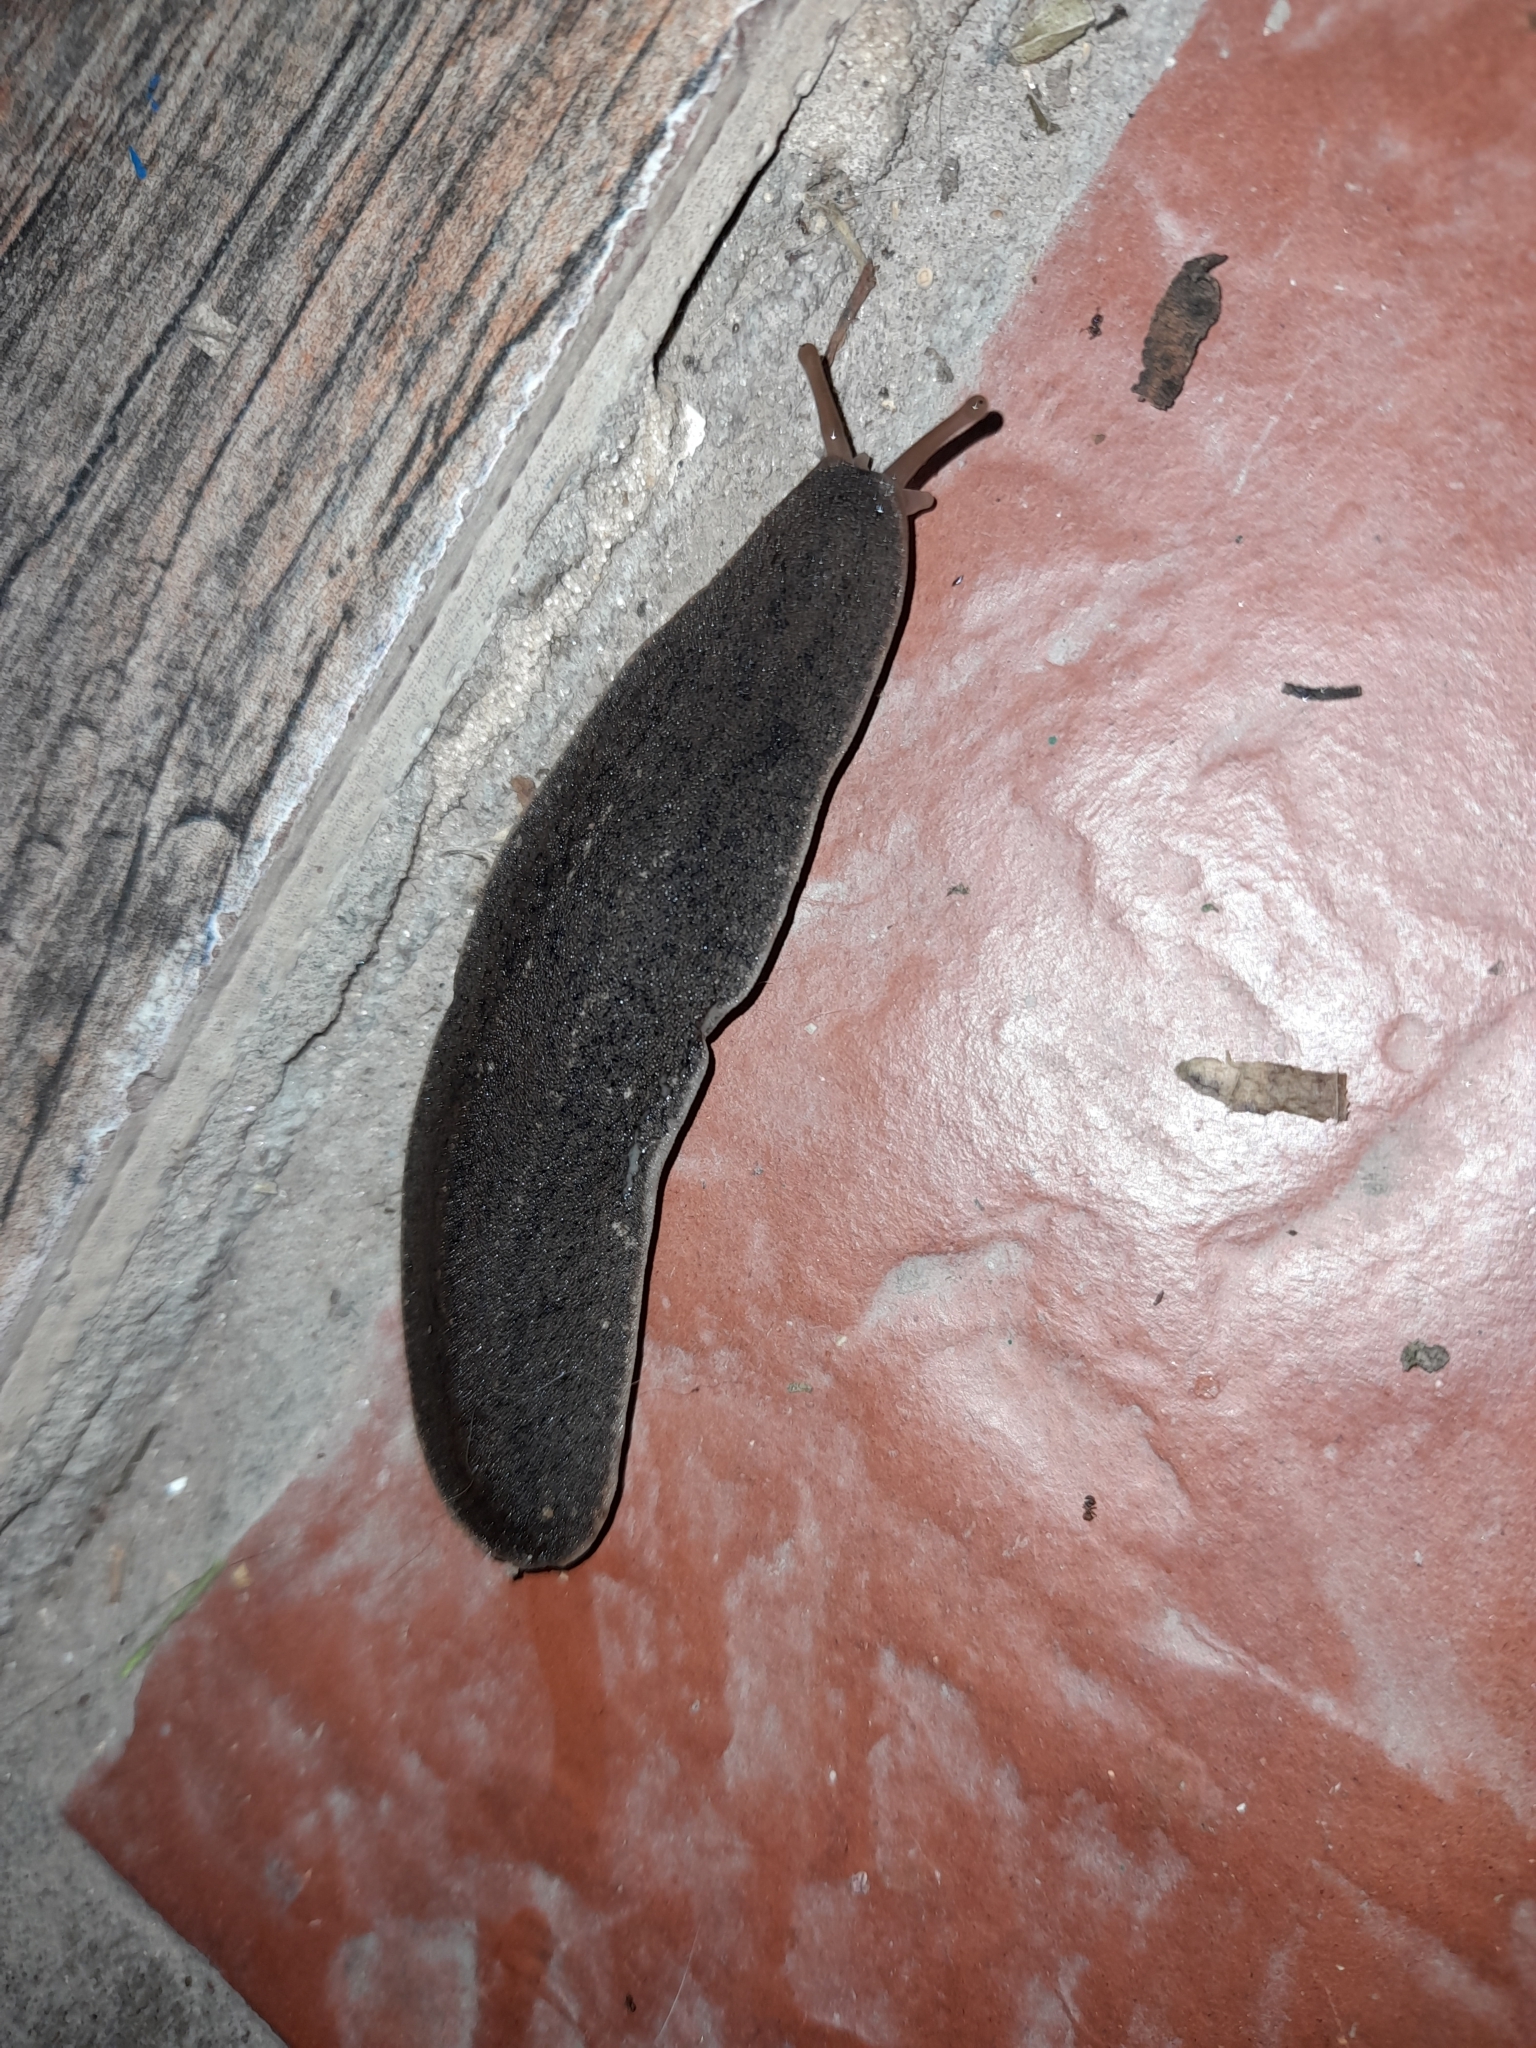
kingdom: Animalia
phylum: Mollusca
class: Gastropoda
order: Systellommatophora
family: Veronicellidae
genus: Phyllocaulis
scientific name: Phyllocaulis soleiformis
